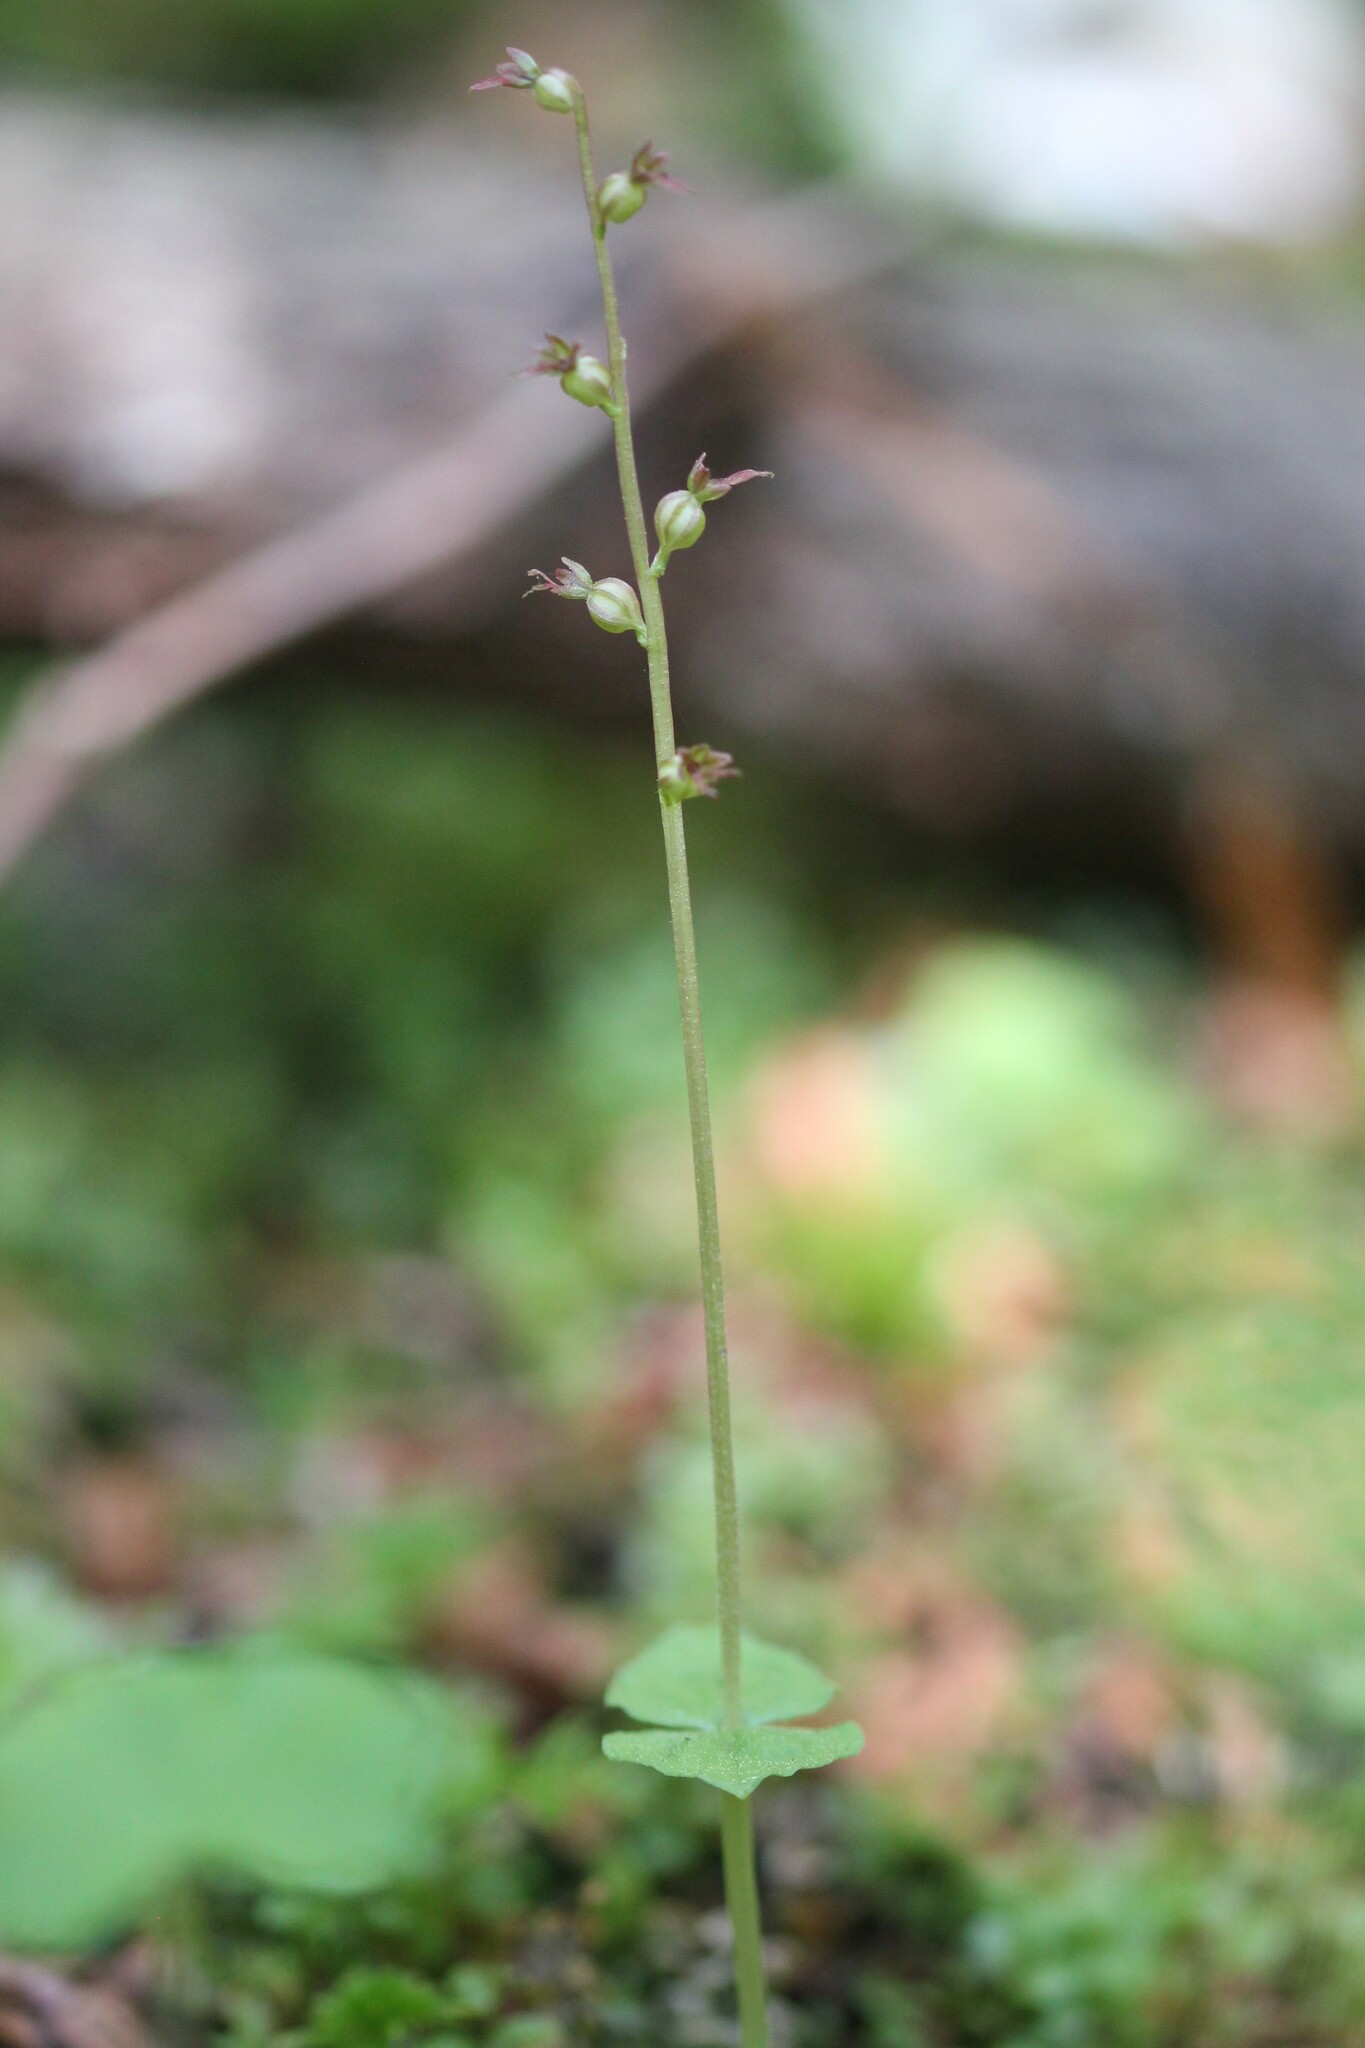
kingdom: Plantae
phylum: Tracheophyta
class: Liliopsida
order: Asparagales
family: Orchidaceae
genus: Neottia
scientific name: Neottia cordata
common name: Lesser twayblade
